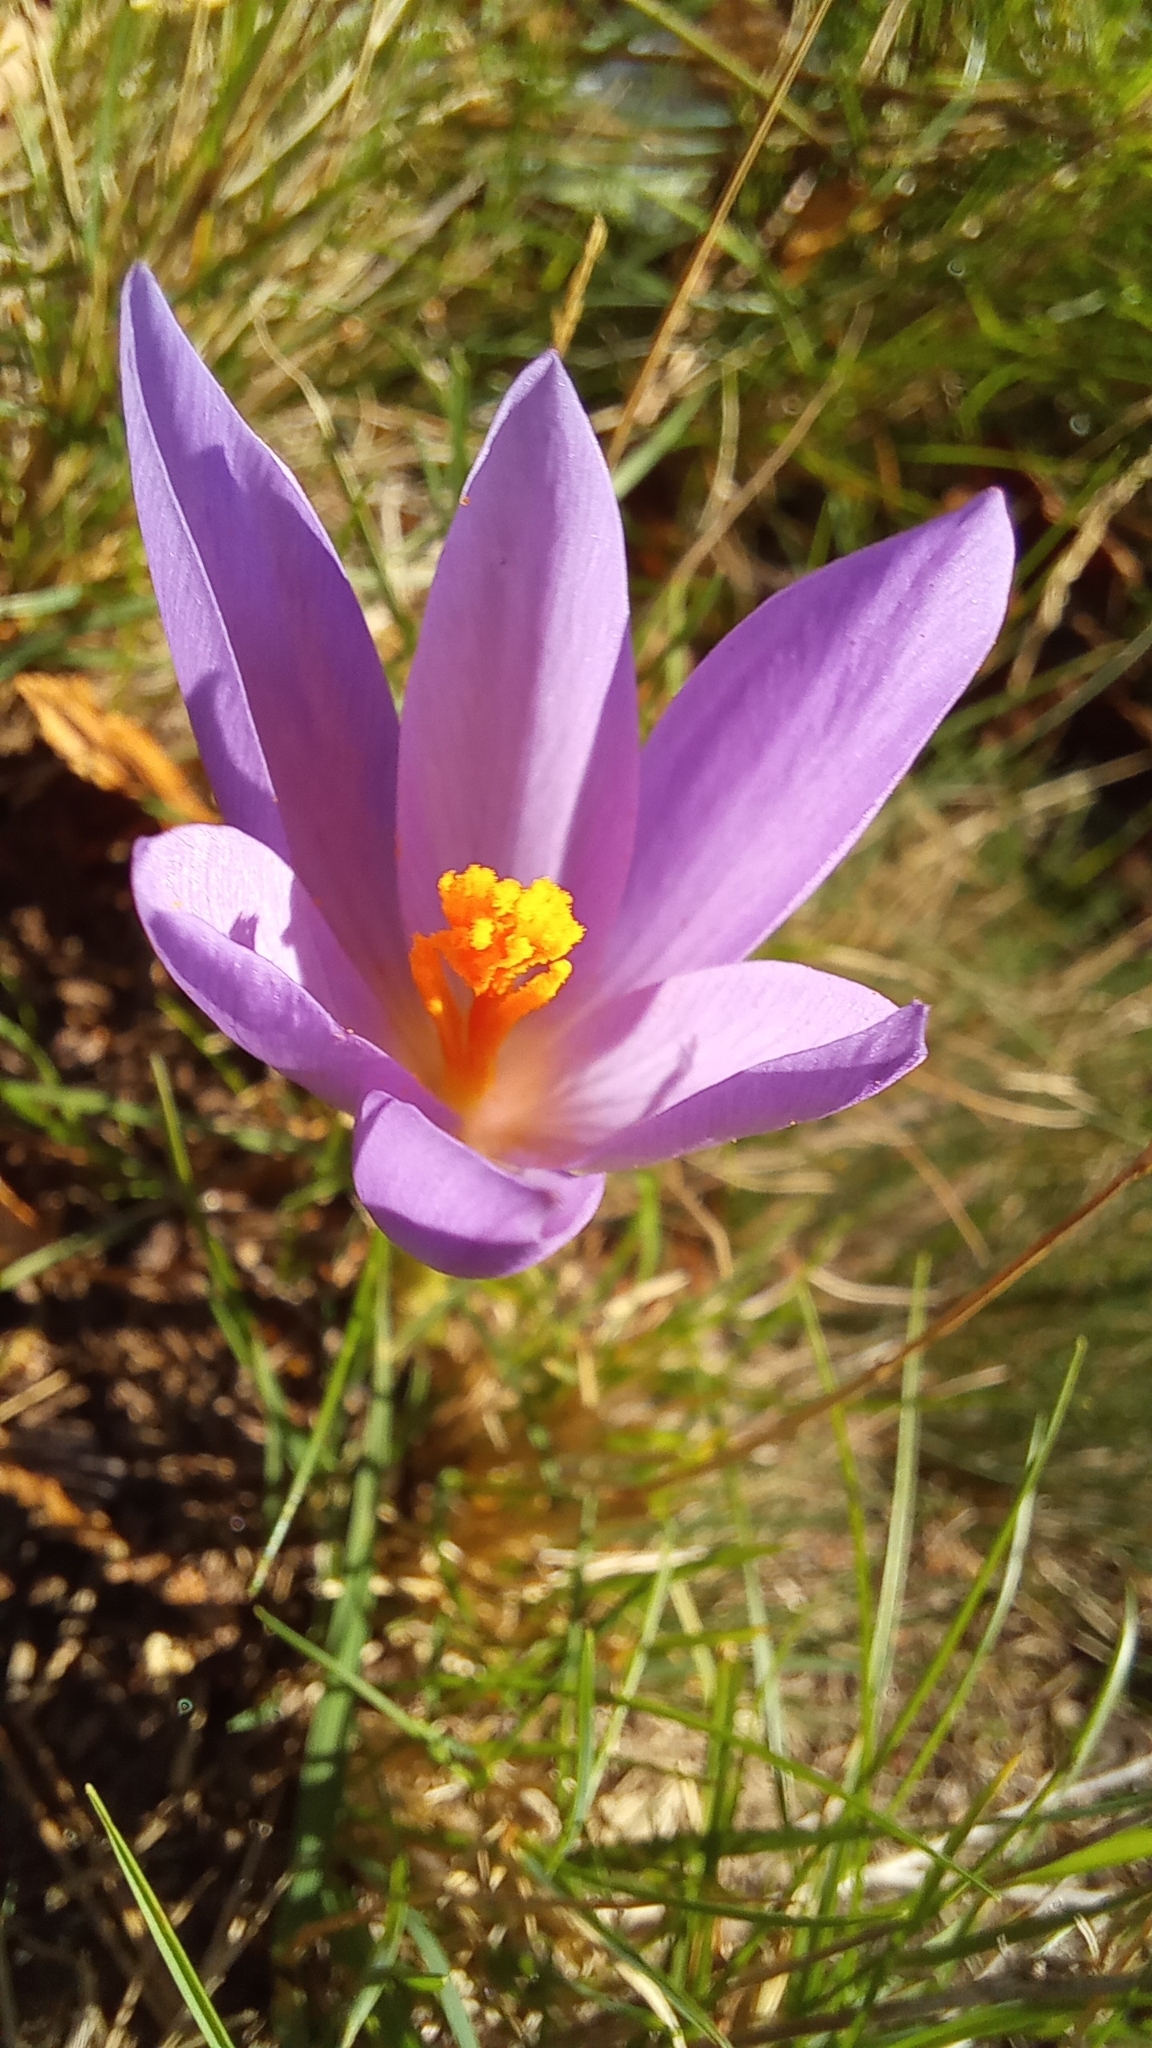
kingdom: Plantae
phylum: Tracheophyta
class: Liliopsida
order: Asparagales
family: Iridaceae
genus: Crocus
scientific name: Crocus serotinus
